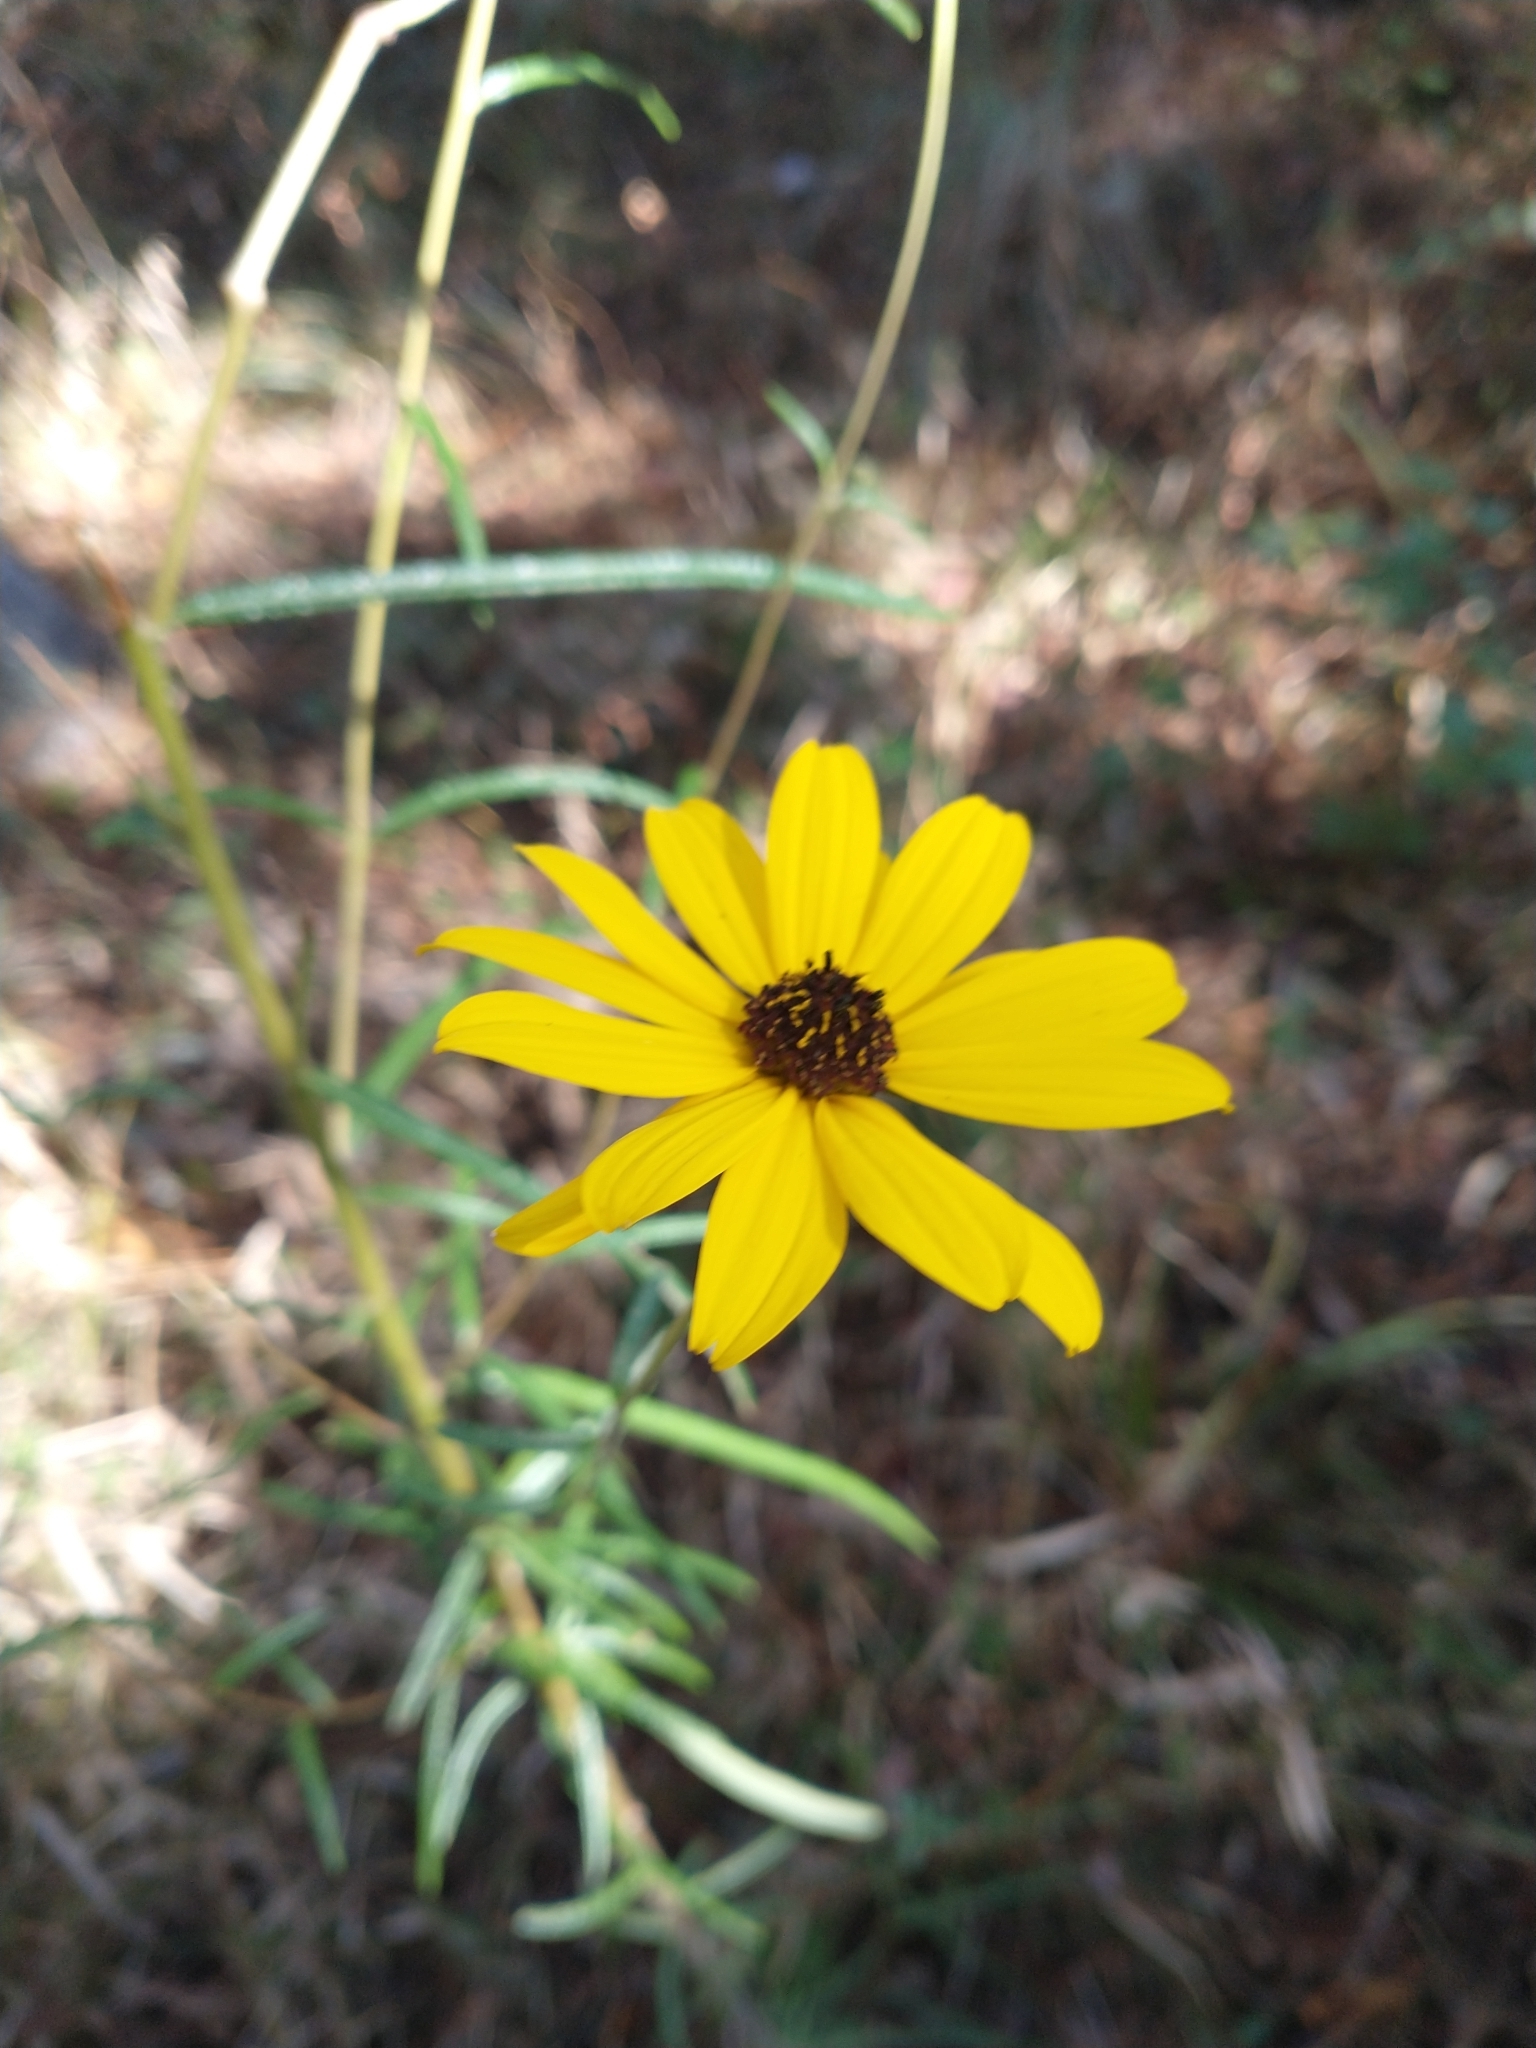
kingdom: Plantae
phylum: Tracheophyta
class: Magnoliopsida
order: Asterales
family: Asteraceae
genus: Helianthus
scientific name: Helianthus angustifolius
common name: Swamp sunflower
